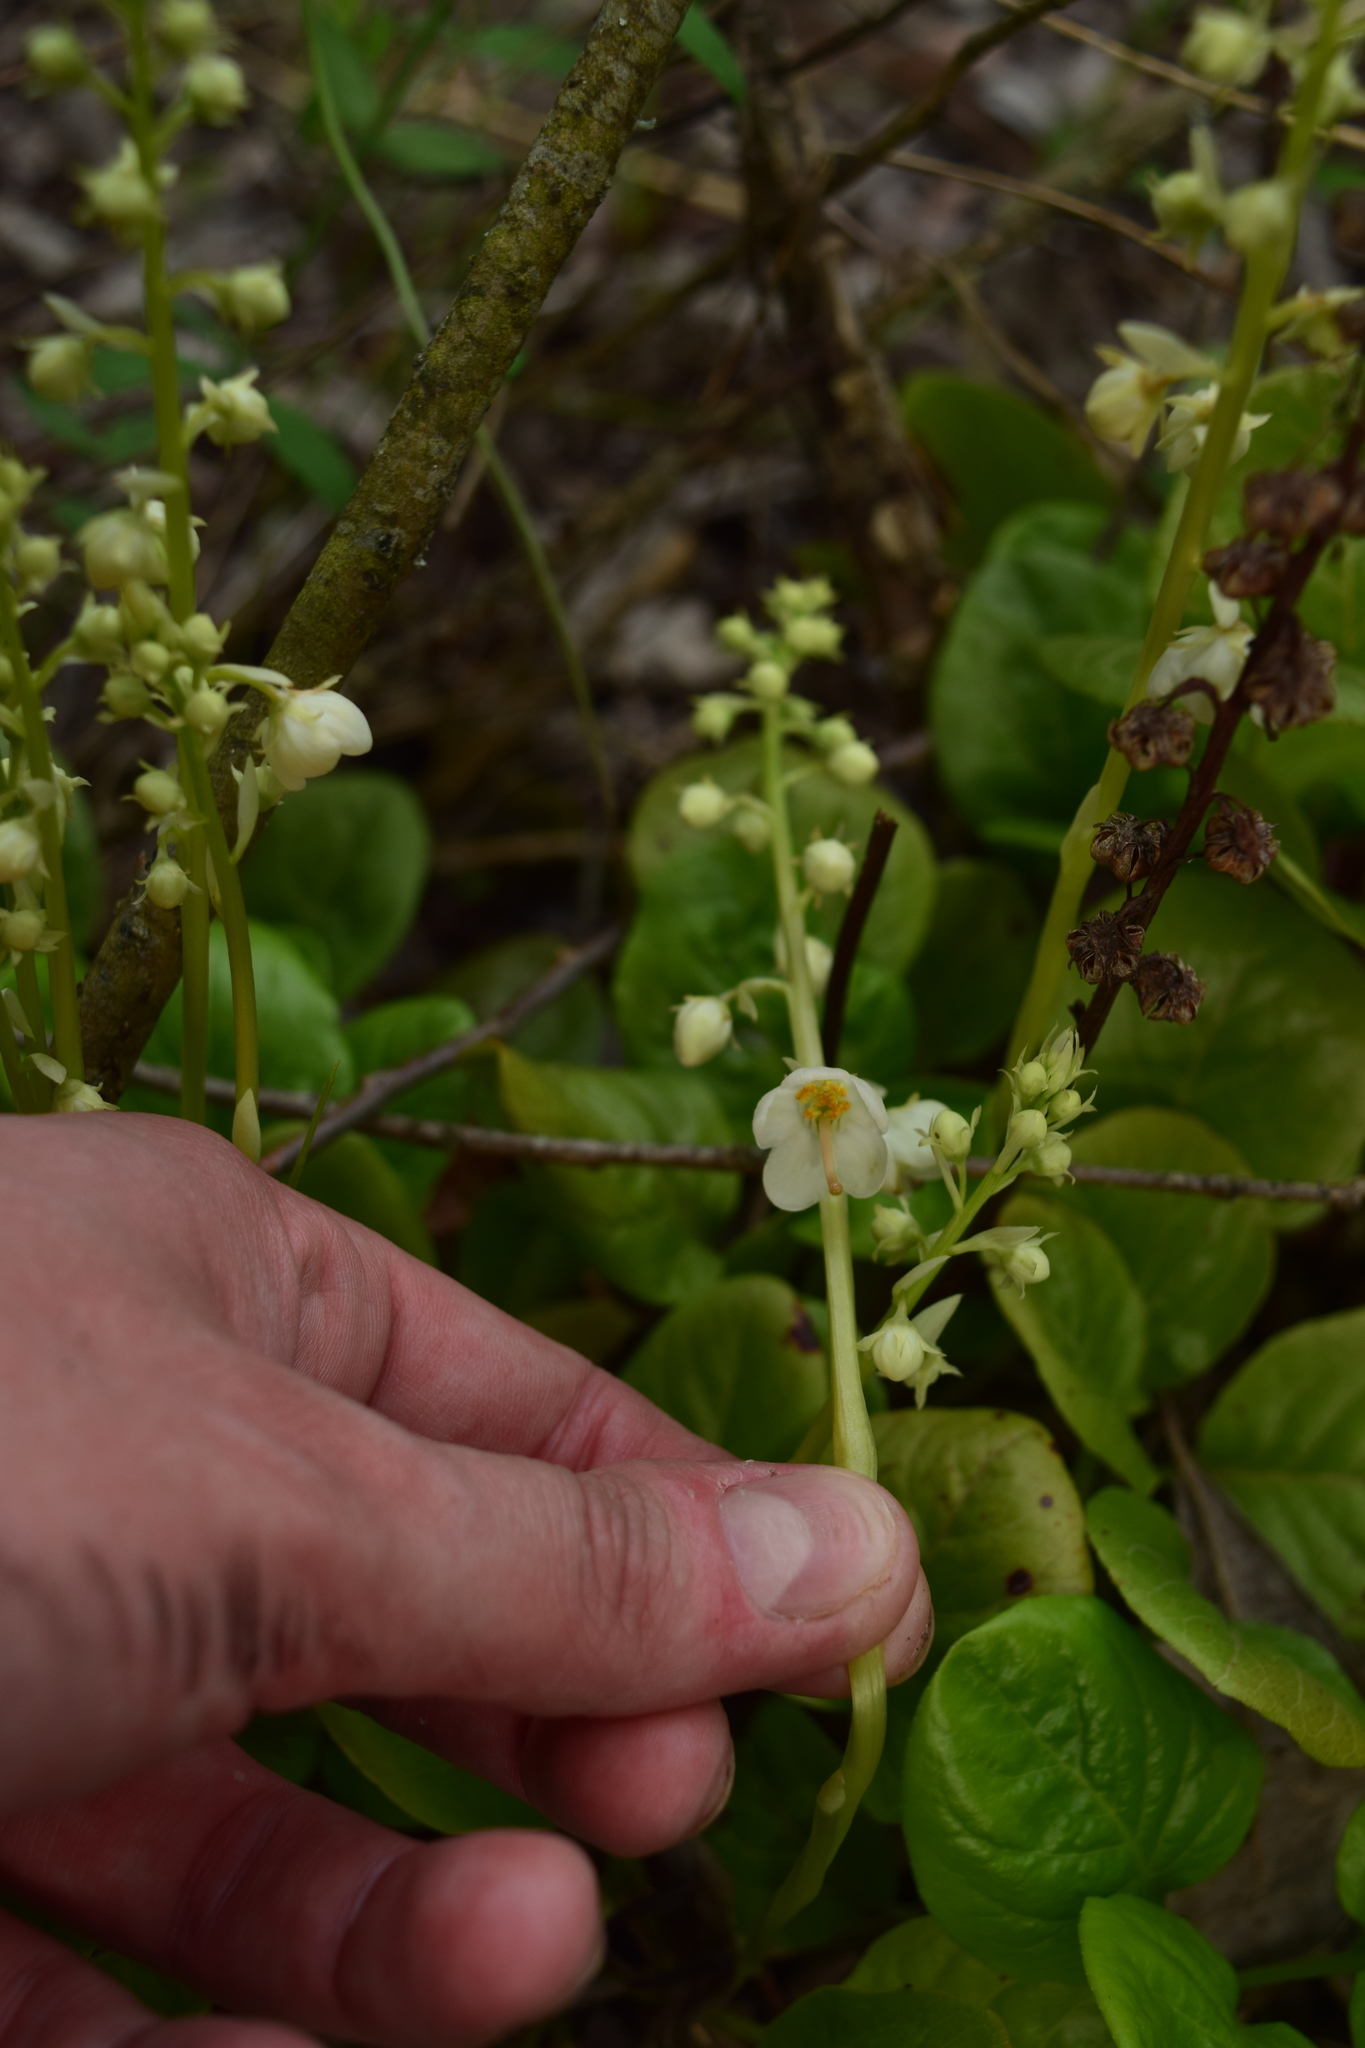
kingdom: Plantae
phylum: Tracheophyta
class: Magnoliopsida
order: Ericales
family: Ericaceae
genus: Pyrola
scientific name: Pyrola rotundifolia
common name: Round-leaved wintergreen
